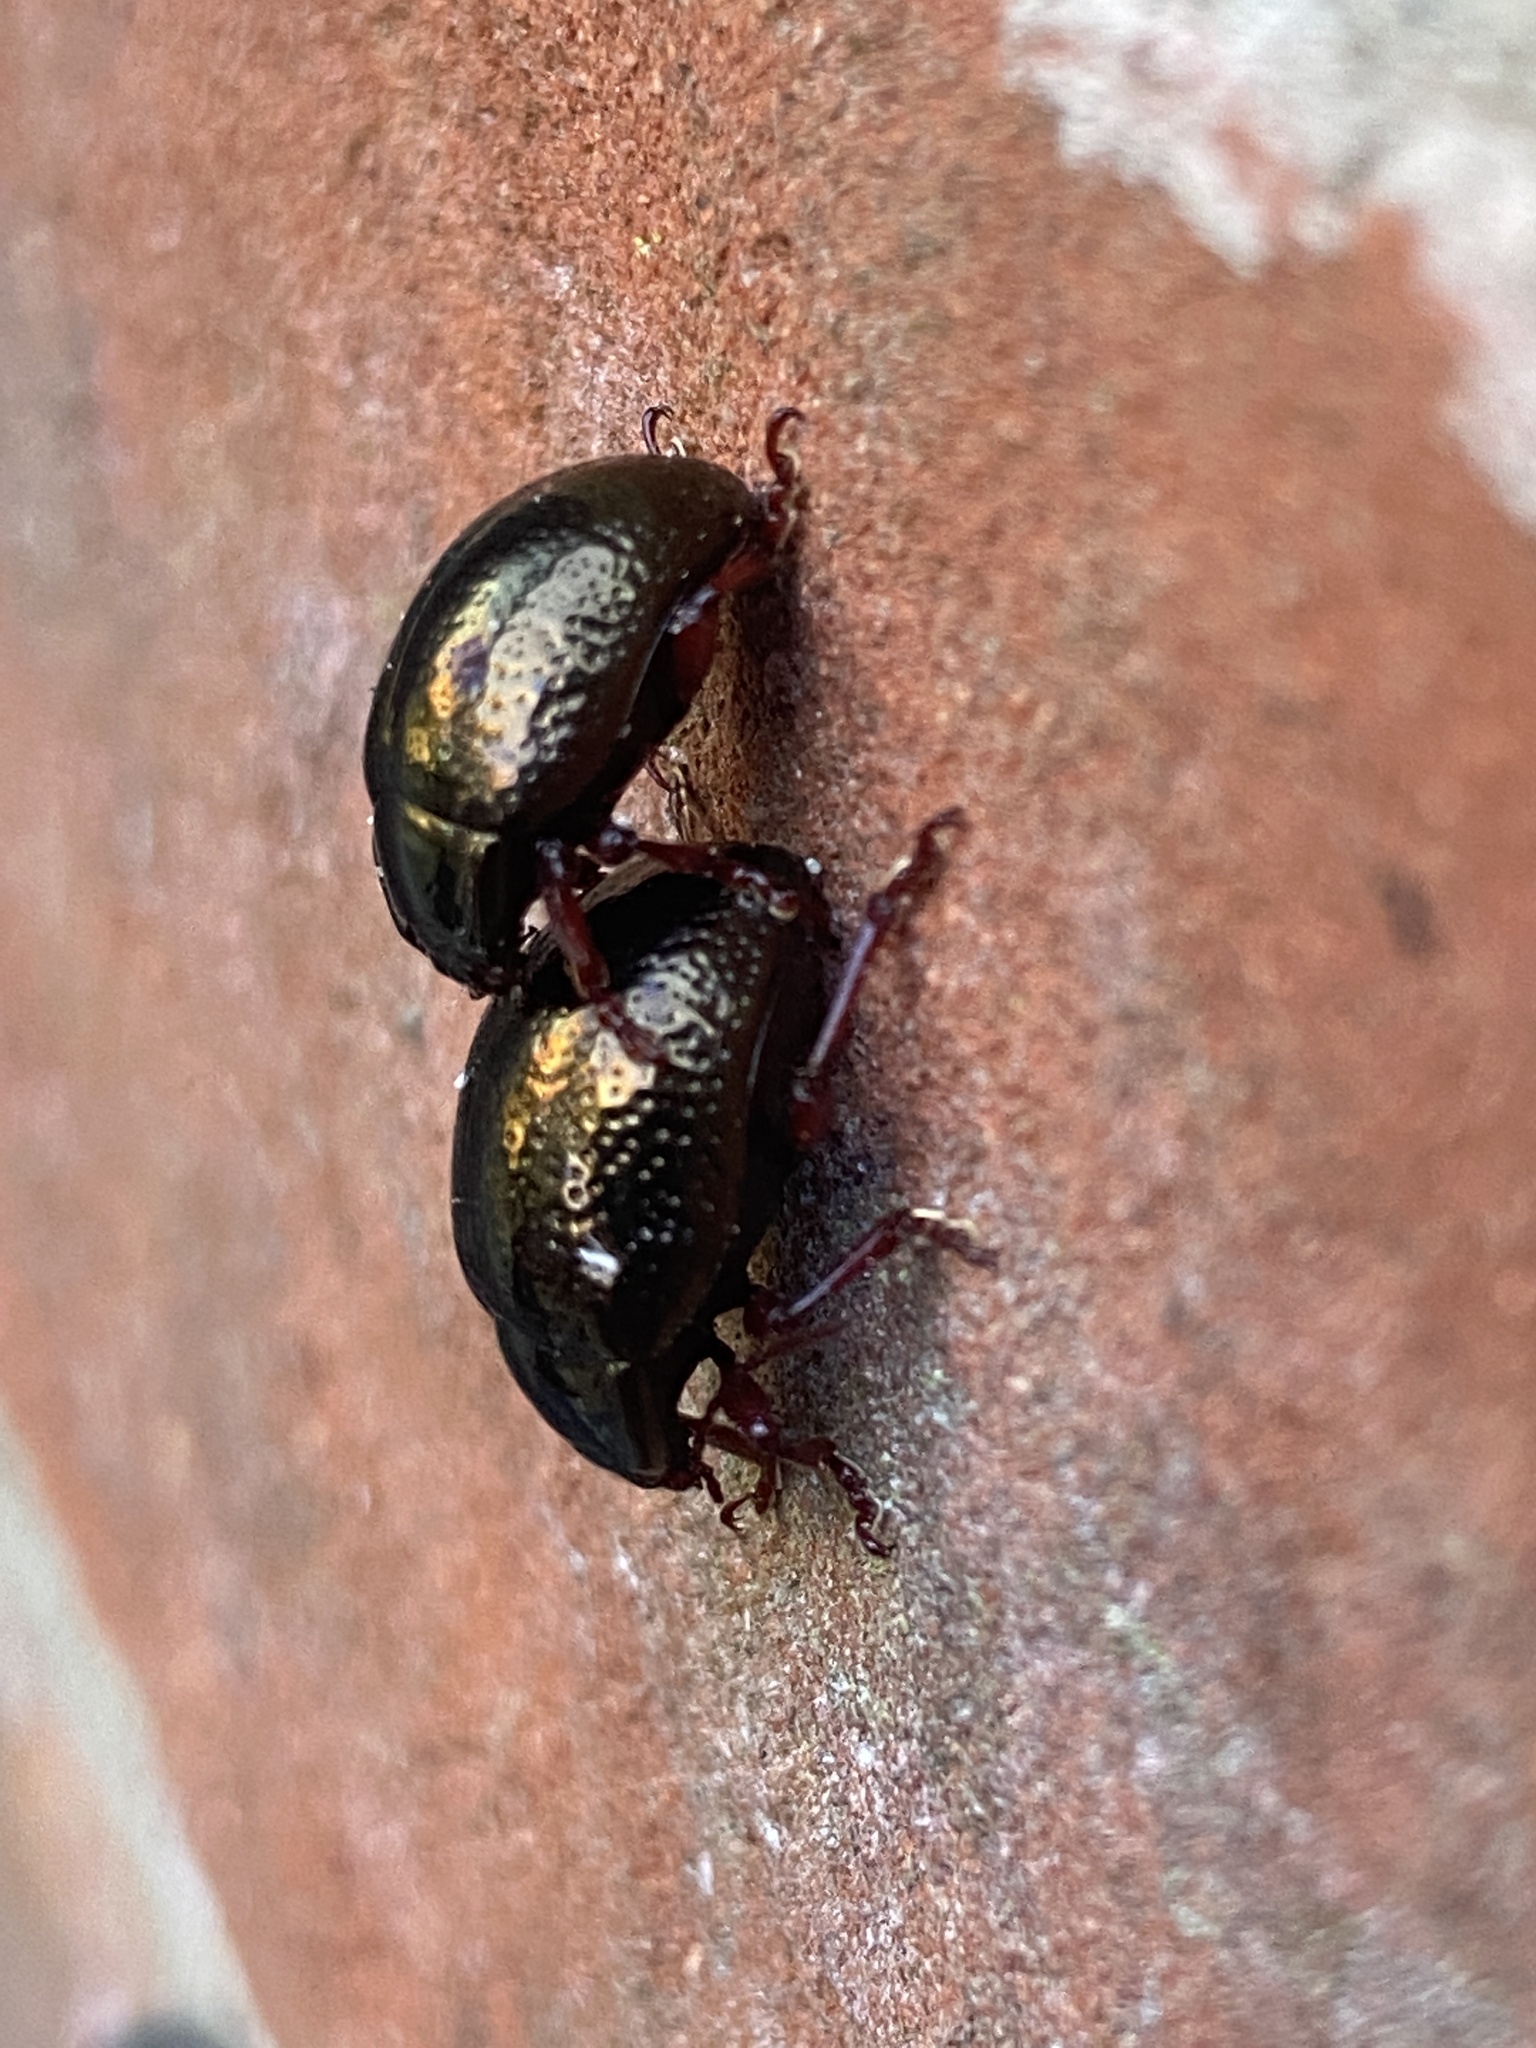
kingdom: Animalia
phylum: Arthropoda
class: Insecta
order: Coleoptera
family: Chrysomelidae
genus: Chrysolina
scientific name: Chrysolina bankii
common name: Leaf beetle
